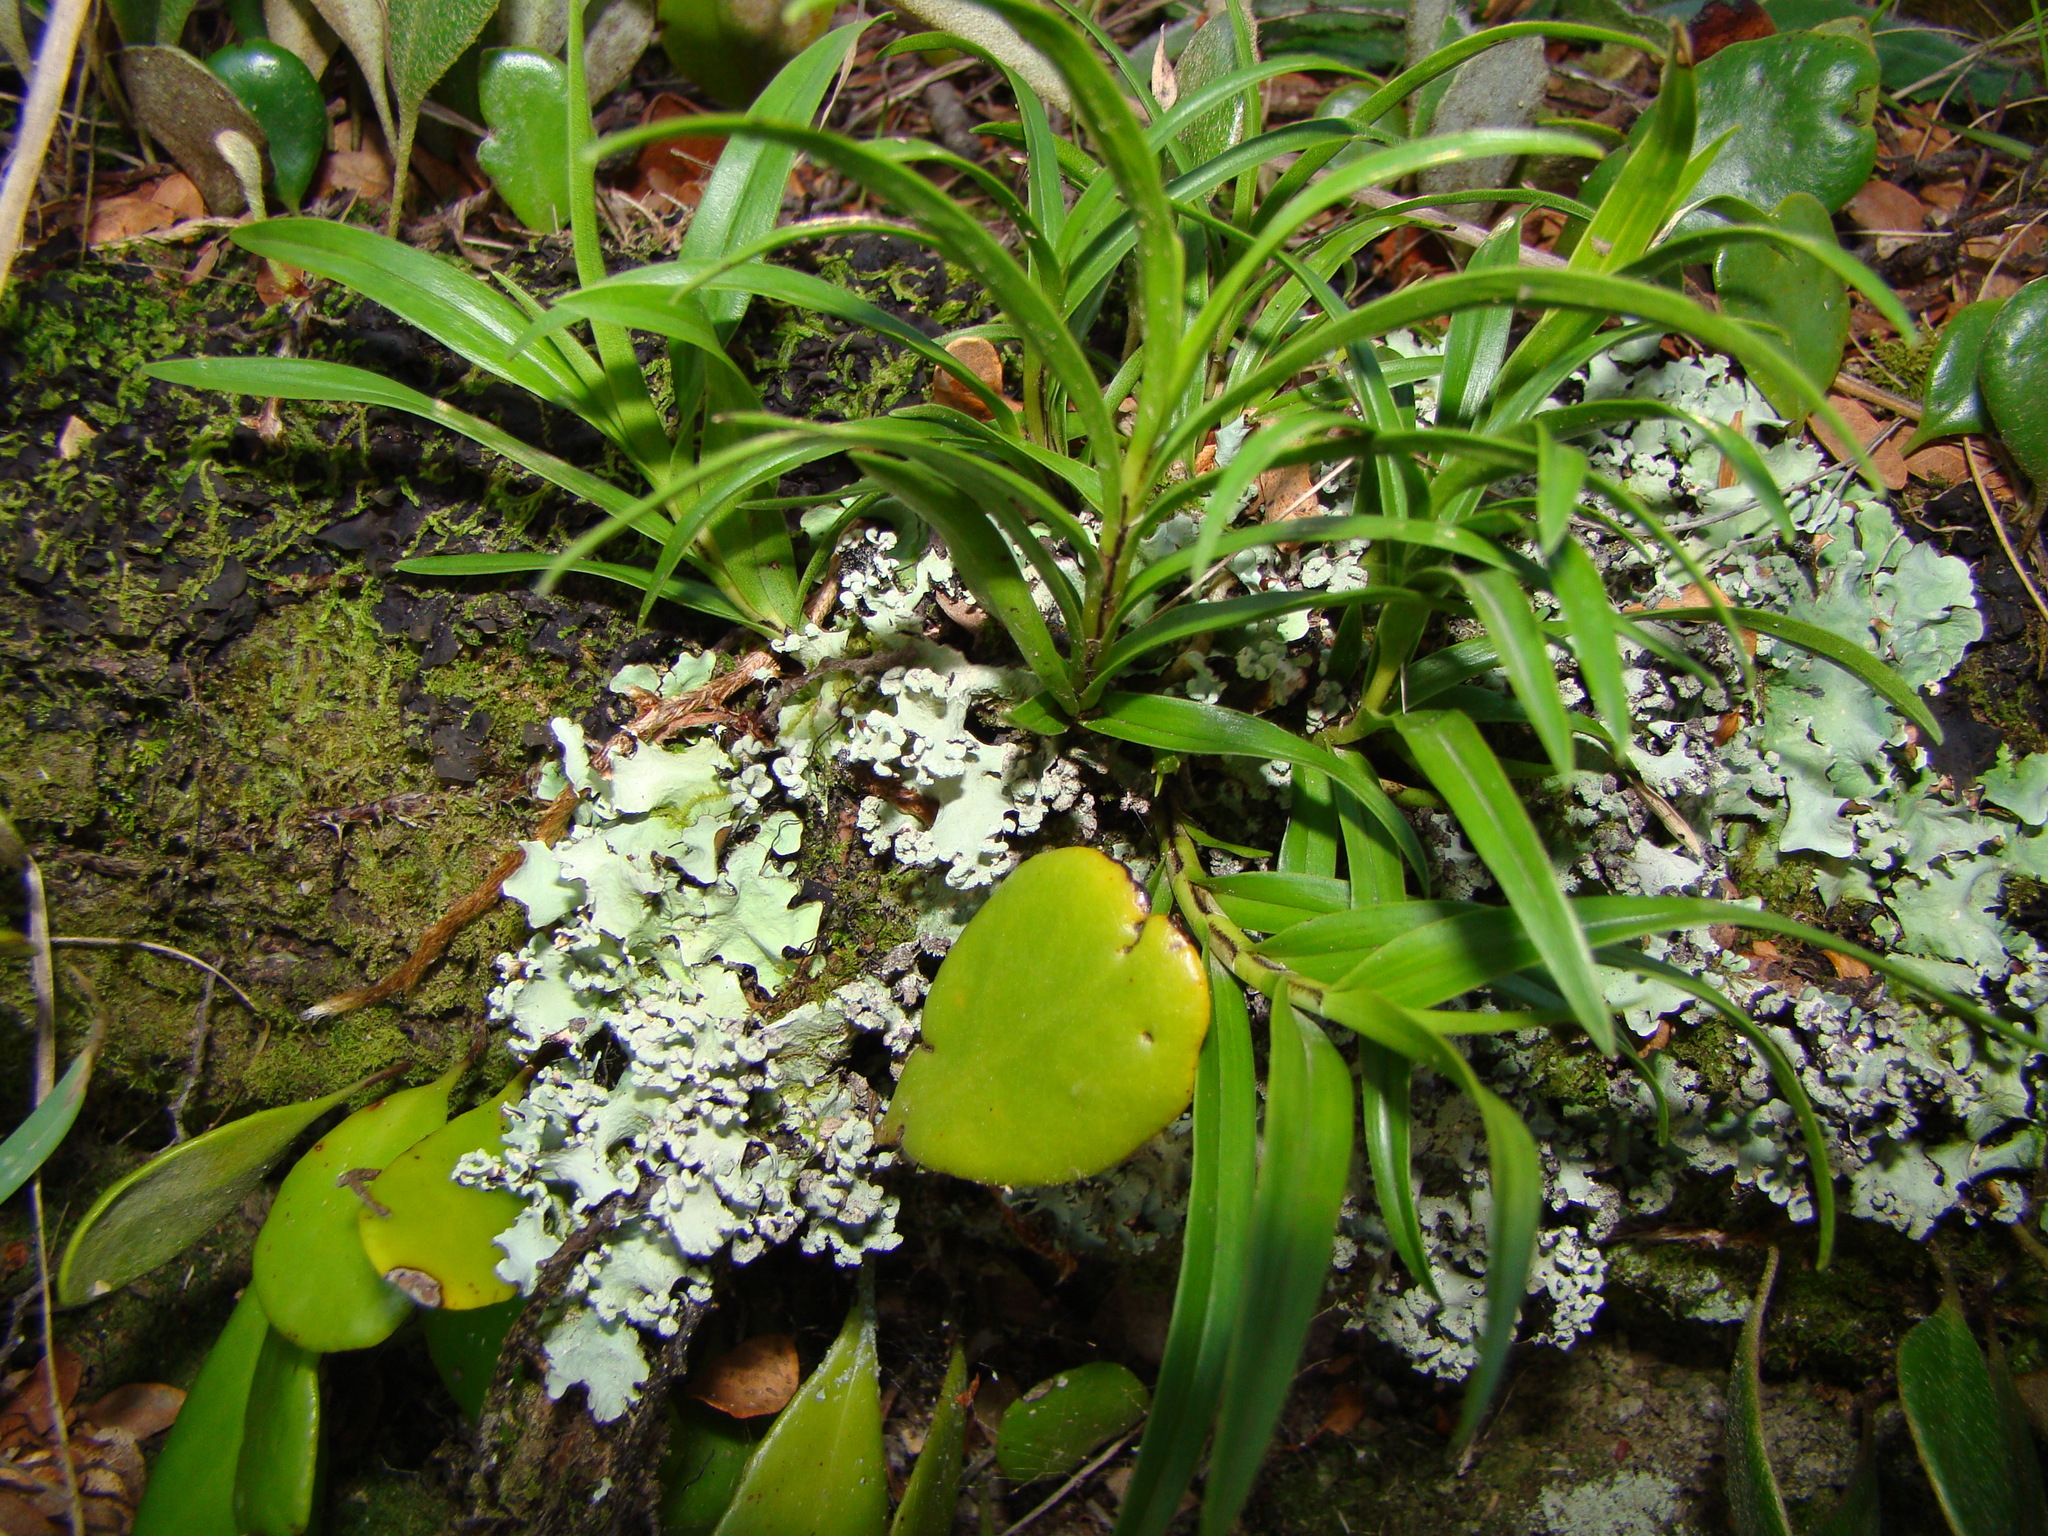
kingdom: Plantae
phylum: Tracheophyta
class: Liliopsida
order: Asparagales
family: Orchidaceae
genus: Earina
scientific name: Earina autumnalis
